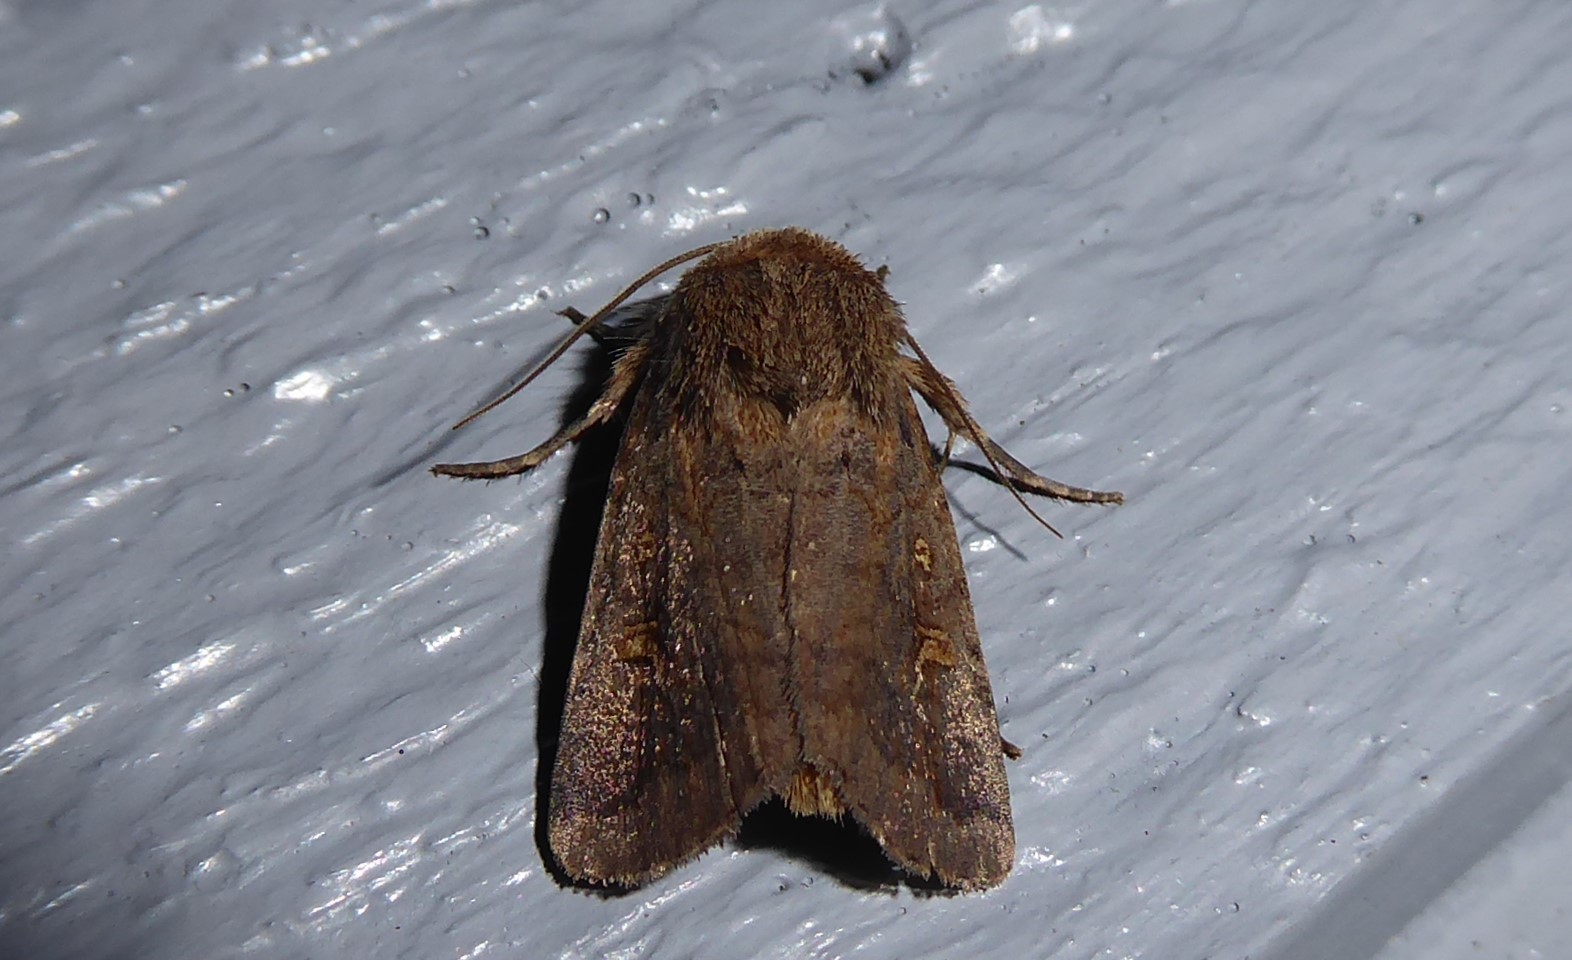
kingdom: Animalia
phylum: Arthropoda
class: Insecta
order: Lepidoptera
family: Noctuidae
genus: Proteuxoa
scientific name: Proteuxoa tetronycha
